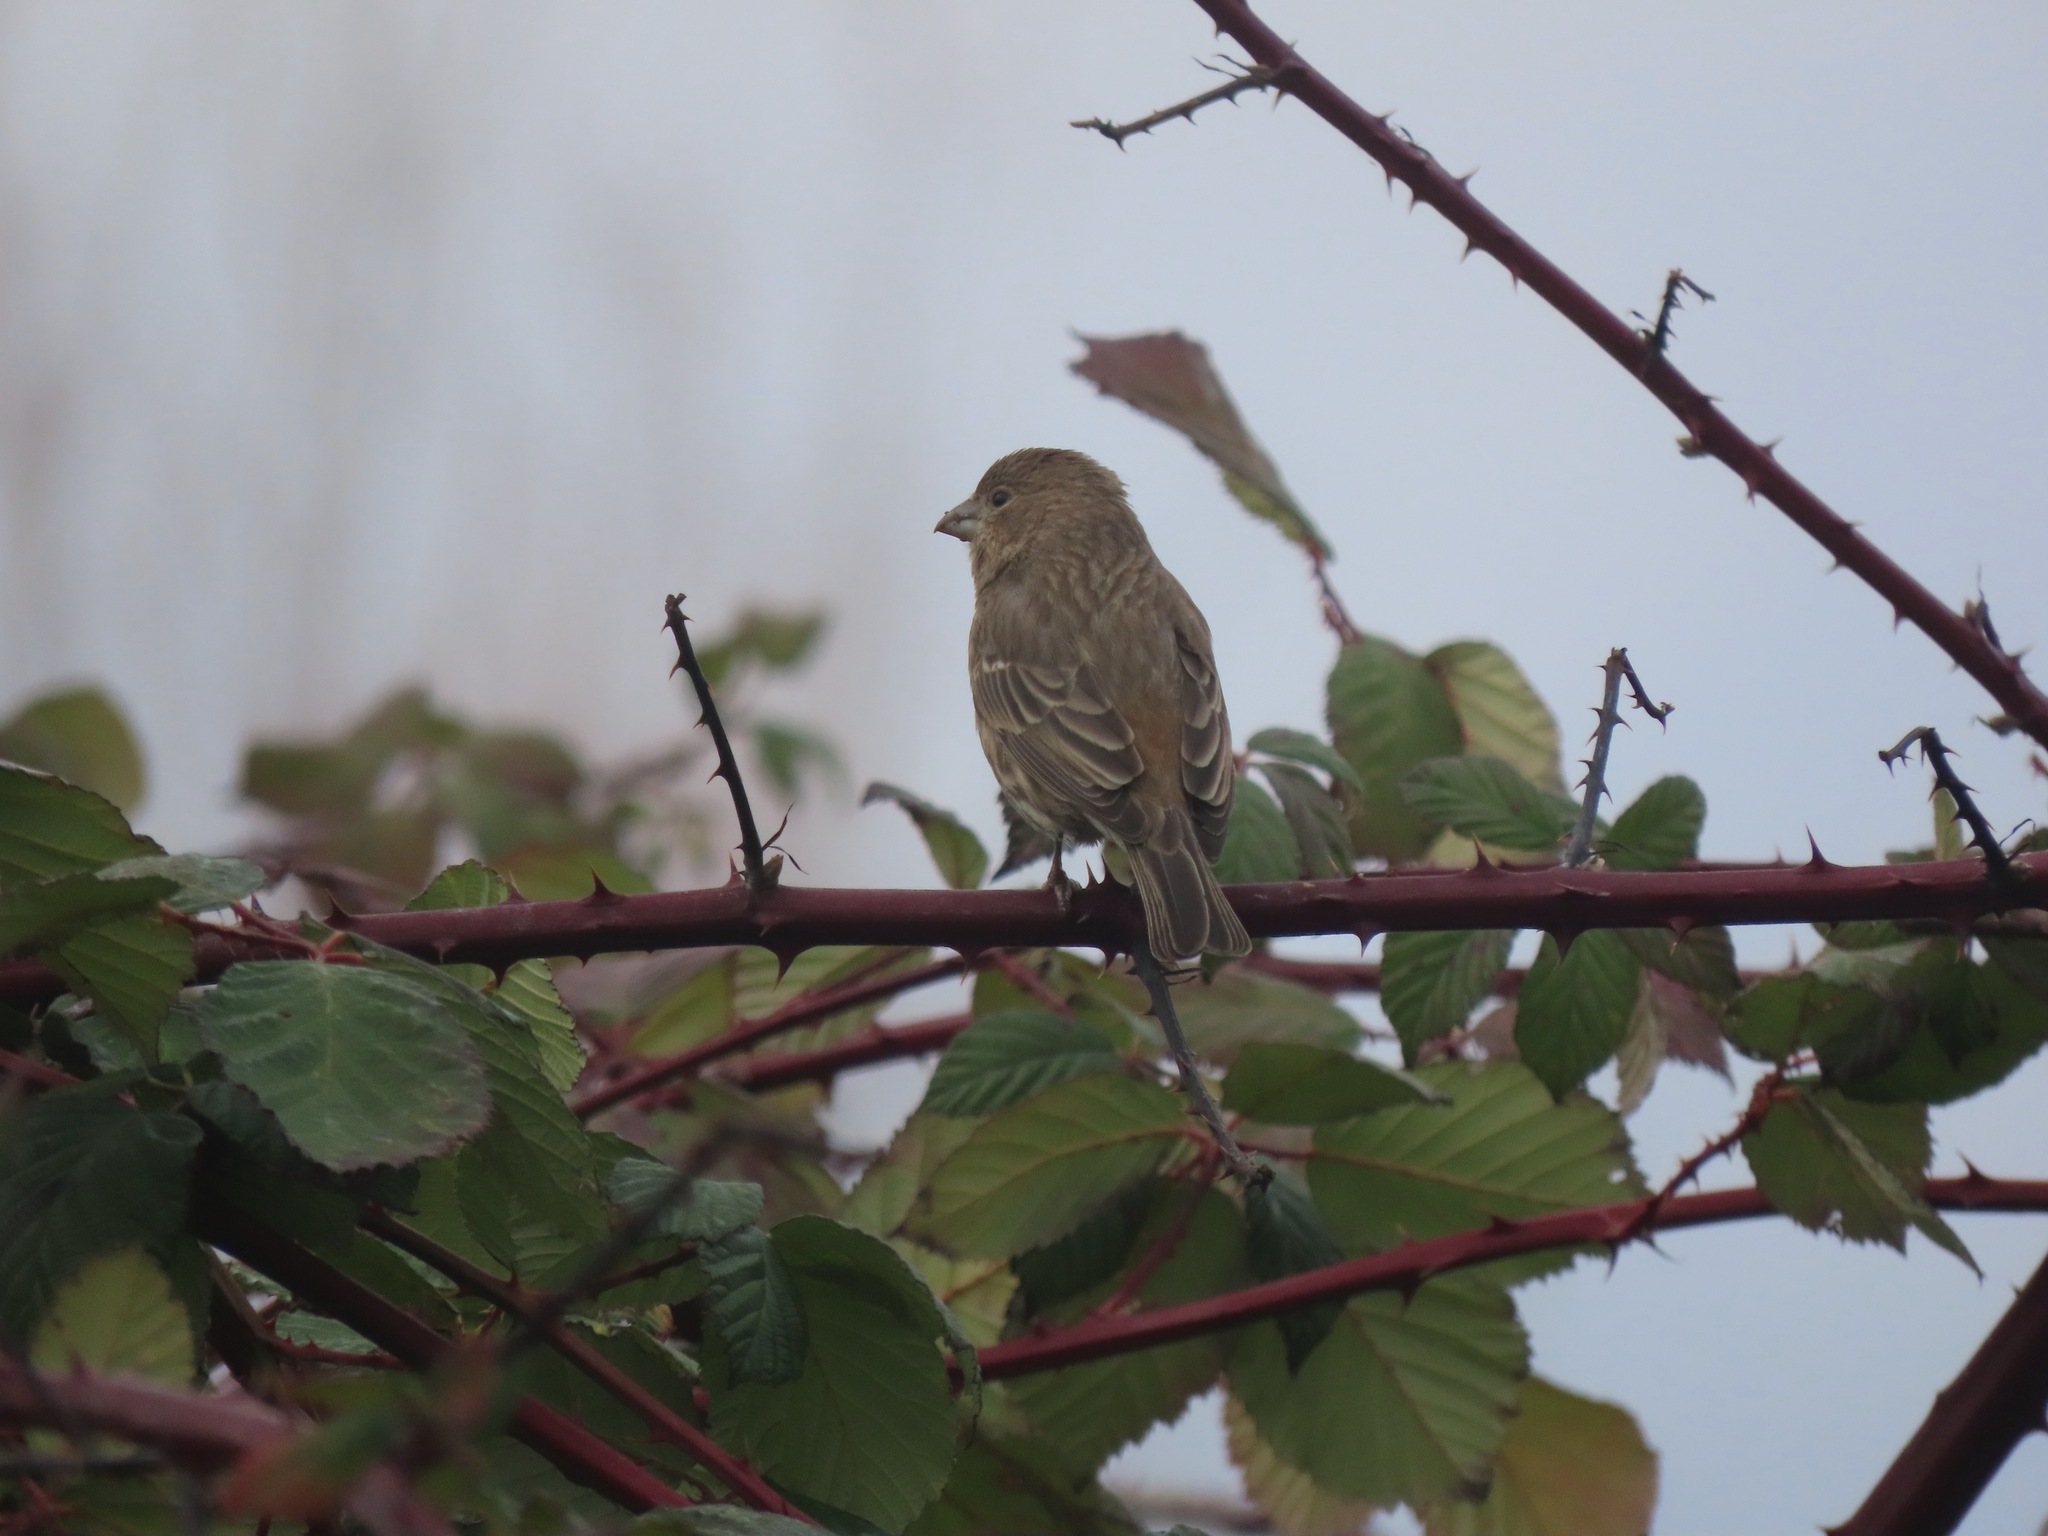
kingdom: Animalia
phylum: Chordata
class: Aves
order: Passeriformes
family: Fringillidae
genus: Haemorhous
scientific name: Haemorhous mexicanus
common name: House finch
